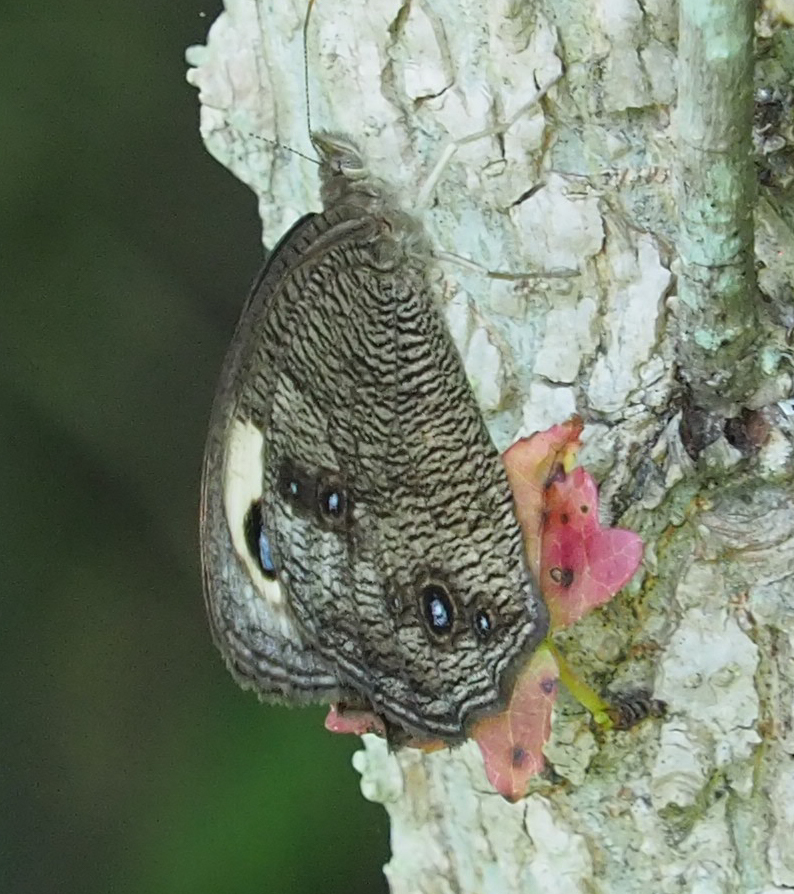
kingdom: Animalia
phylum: Arthropoda
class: Insecta
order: Lepidoptera
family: Nymphalidae
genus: Cercyonis
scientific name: Cercyonis pegala
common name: Common wood-nymph
